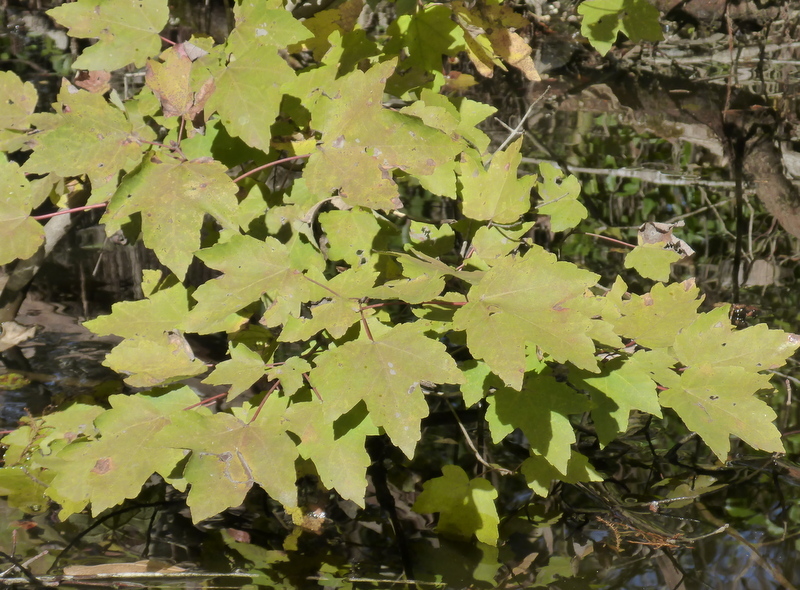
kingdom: Plantae
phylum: Tracheophyta
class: Magnoliopsida
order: Sapindales
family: Sapindaceae
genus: Acer
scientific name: Acer rubrum
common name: Red maple
